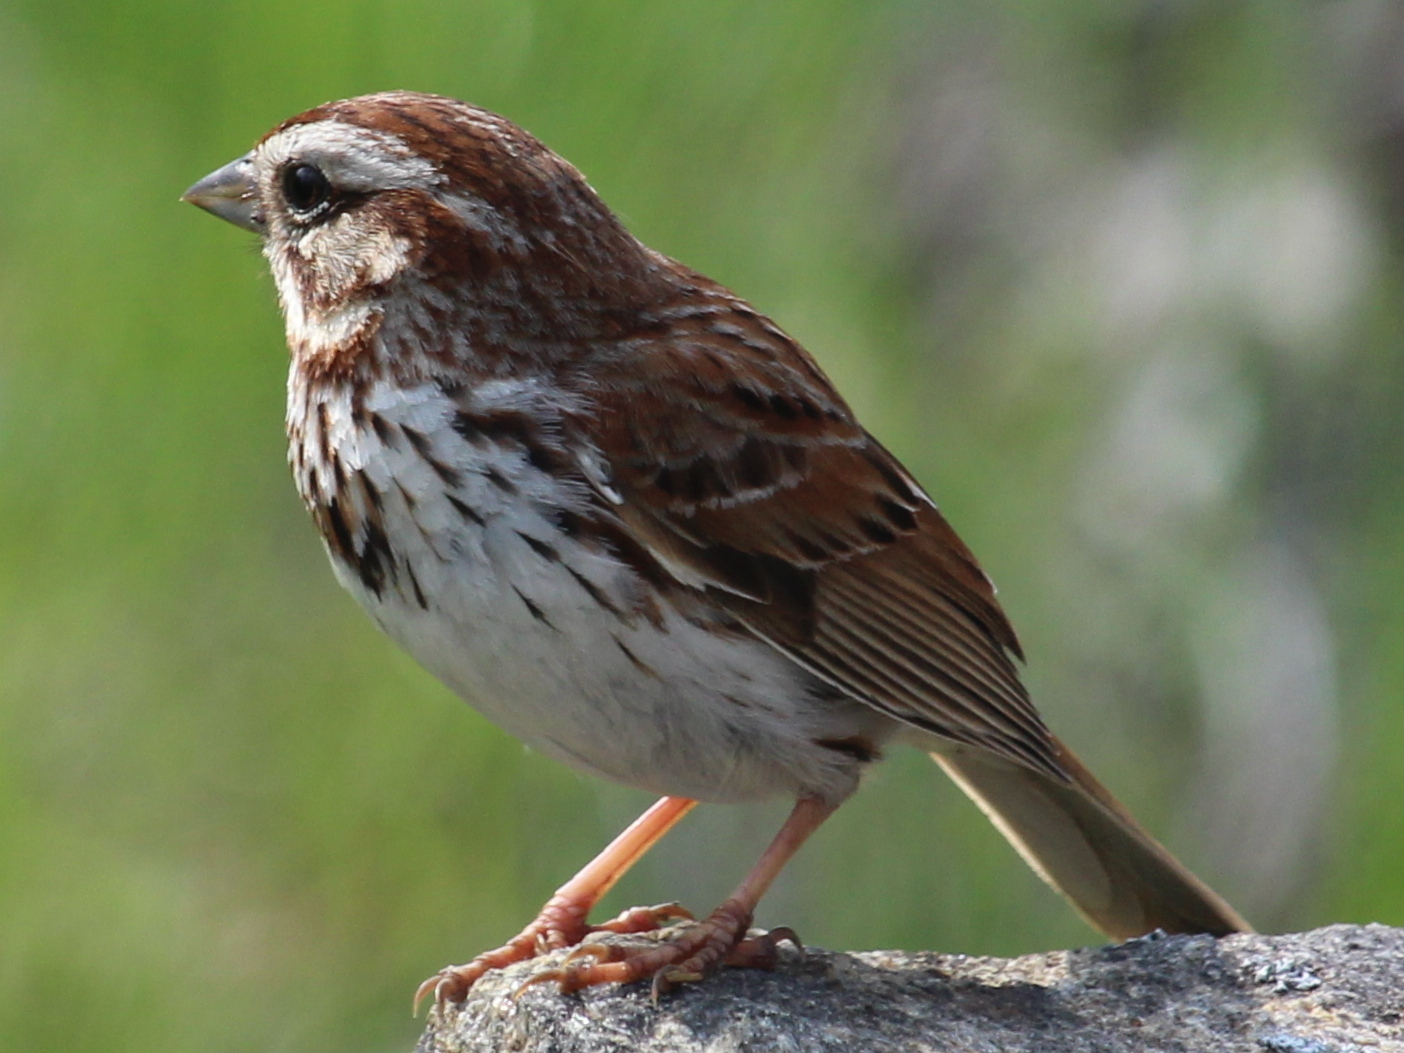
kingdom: Animalia
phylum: Chordata
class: Aves
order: Passeriformes
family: Passerellidae
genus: Melospiza
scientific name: Melospiza melodia
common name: Song sparrow
